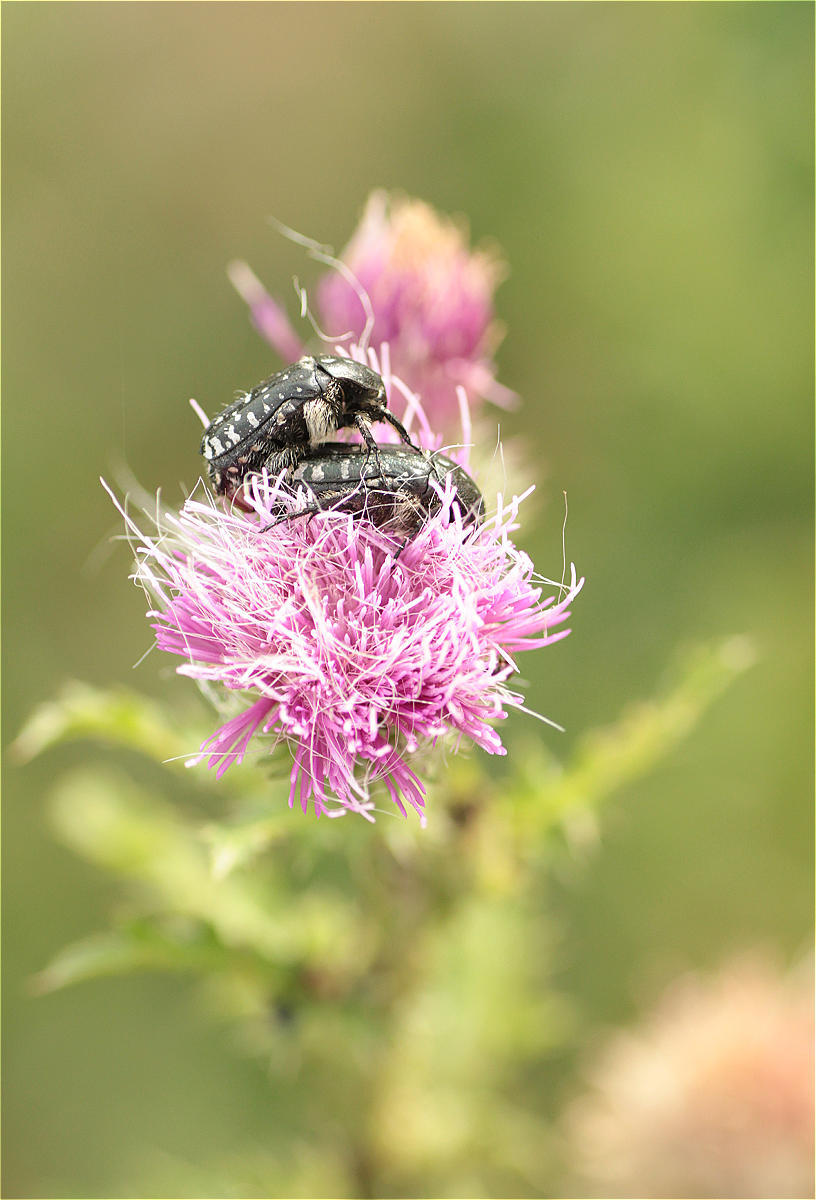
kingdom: Animalia
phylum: Arthropoda
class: Insecta
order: Coleoptera
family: Scarabaeidae
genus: Oxythyrea
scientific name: Oxythyrea funesta
